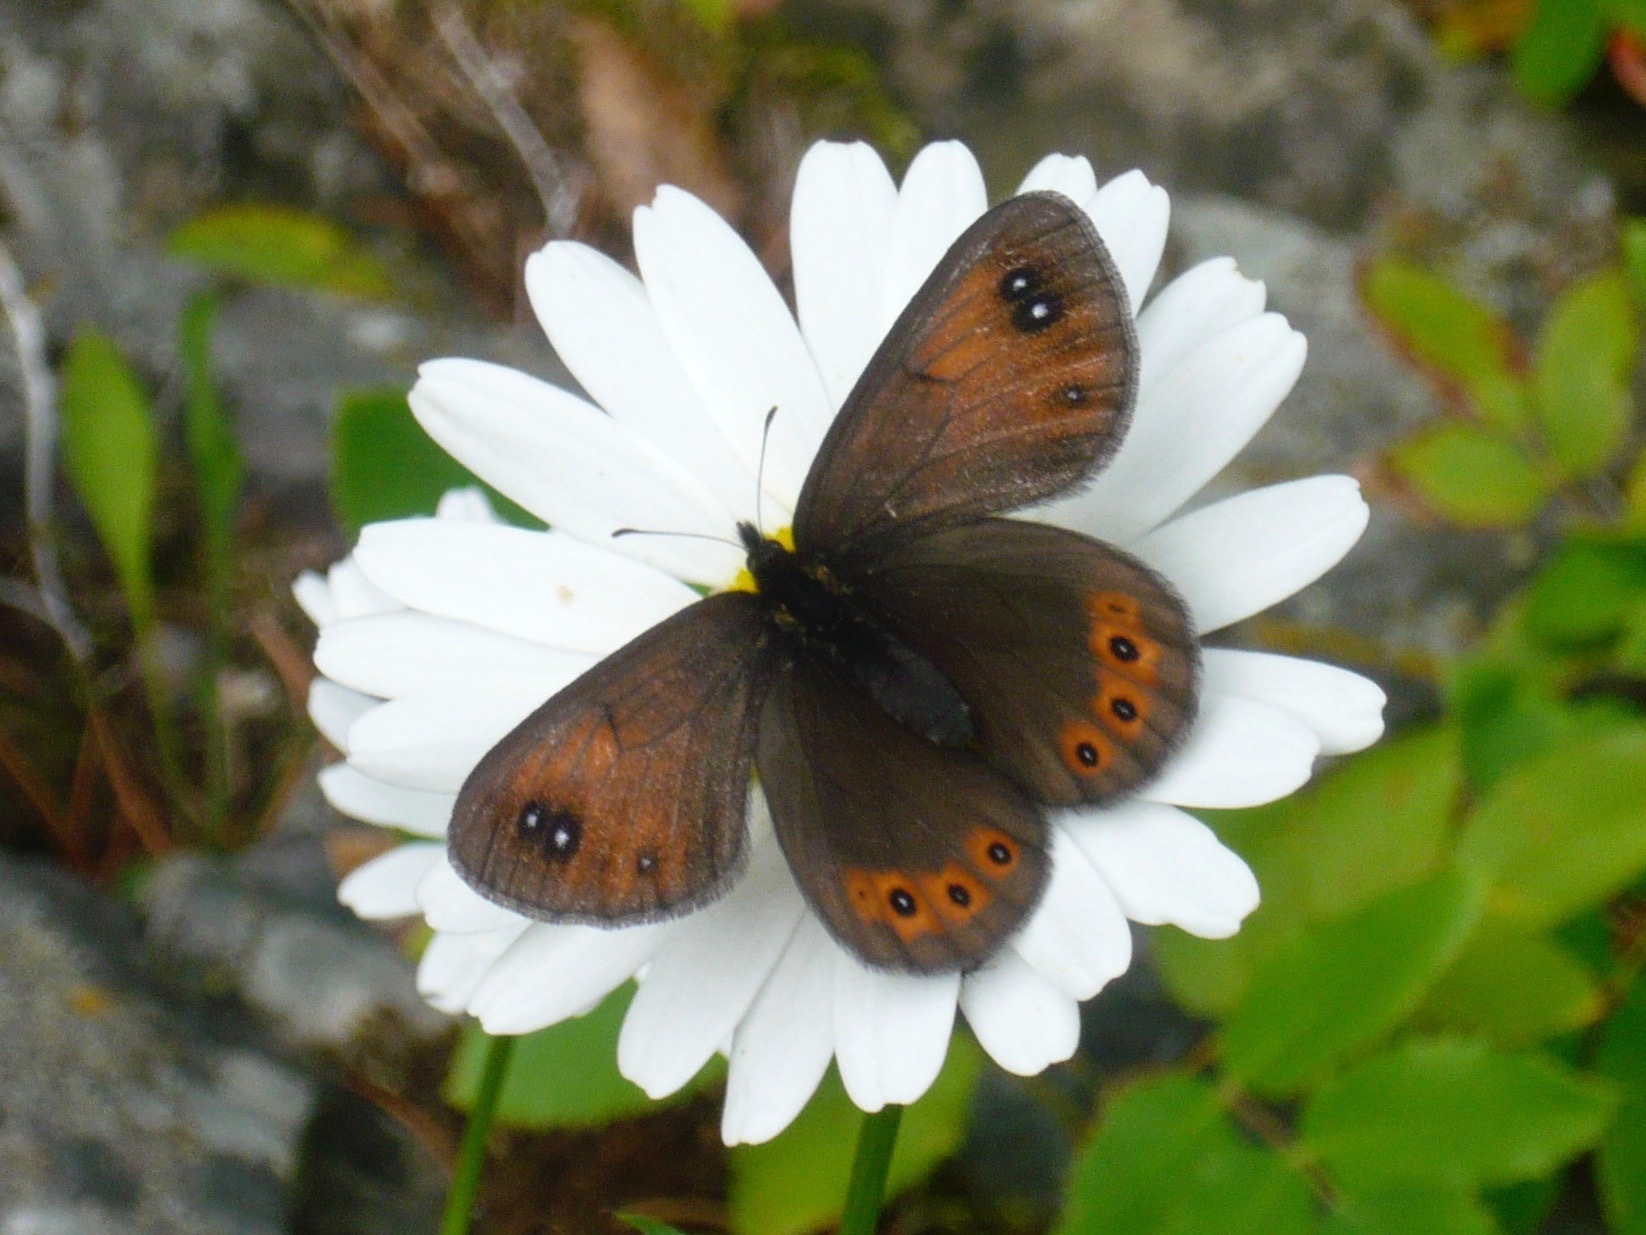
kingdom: Animalia
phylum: Arthropoda
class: Insecta
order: Lepidoptera
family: Nymphalidae
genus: Erebia
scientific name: Erebia epipsodea
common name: Common alpine
